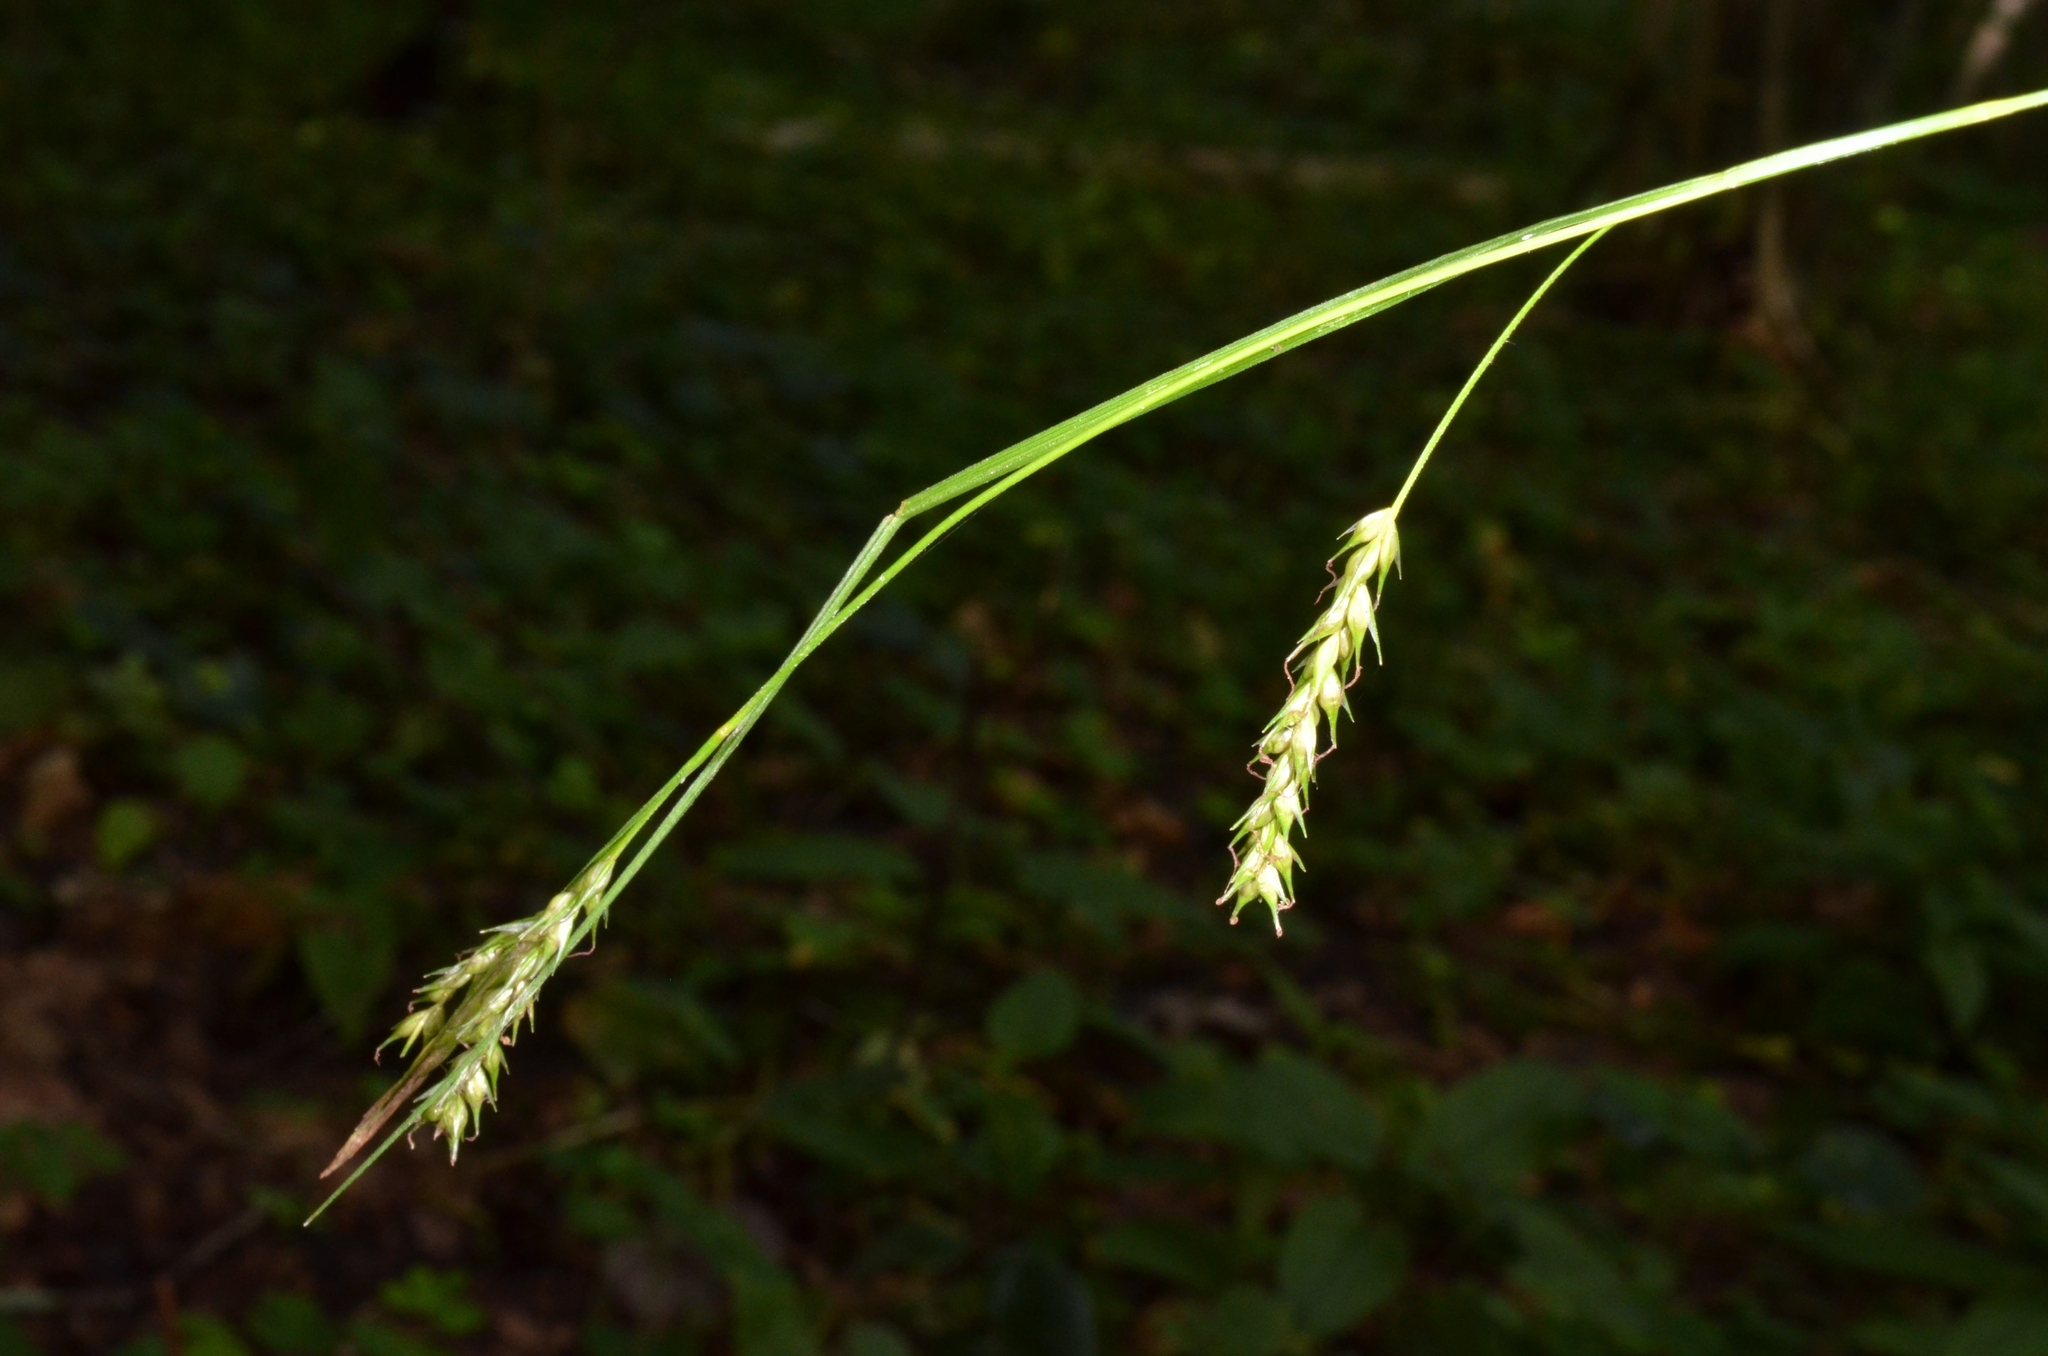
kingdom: Plantae
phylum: Tracheophyta
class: Liliopsida
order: Poales
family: Cyperaceae
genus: Carex
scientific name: Carex sylvatica
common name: Wood-sedge
